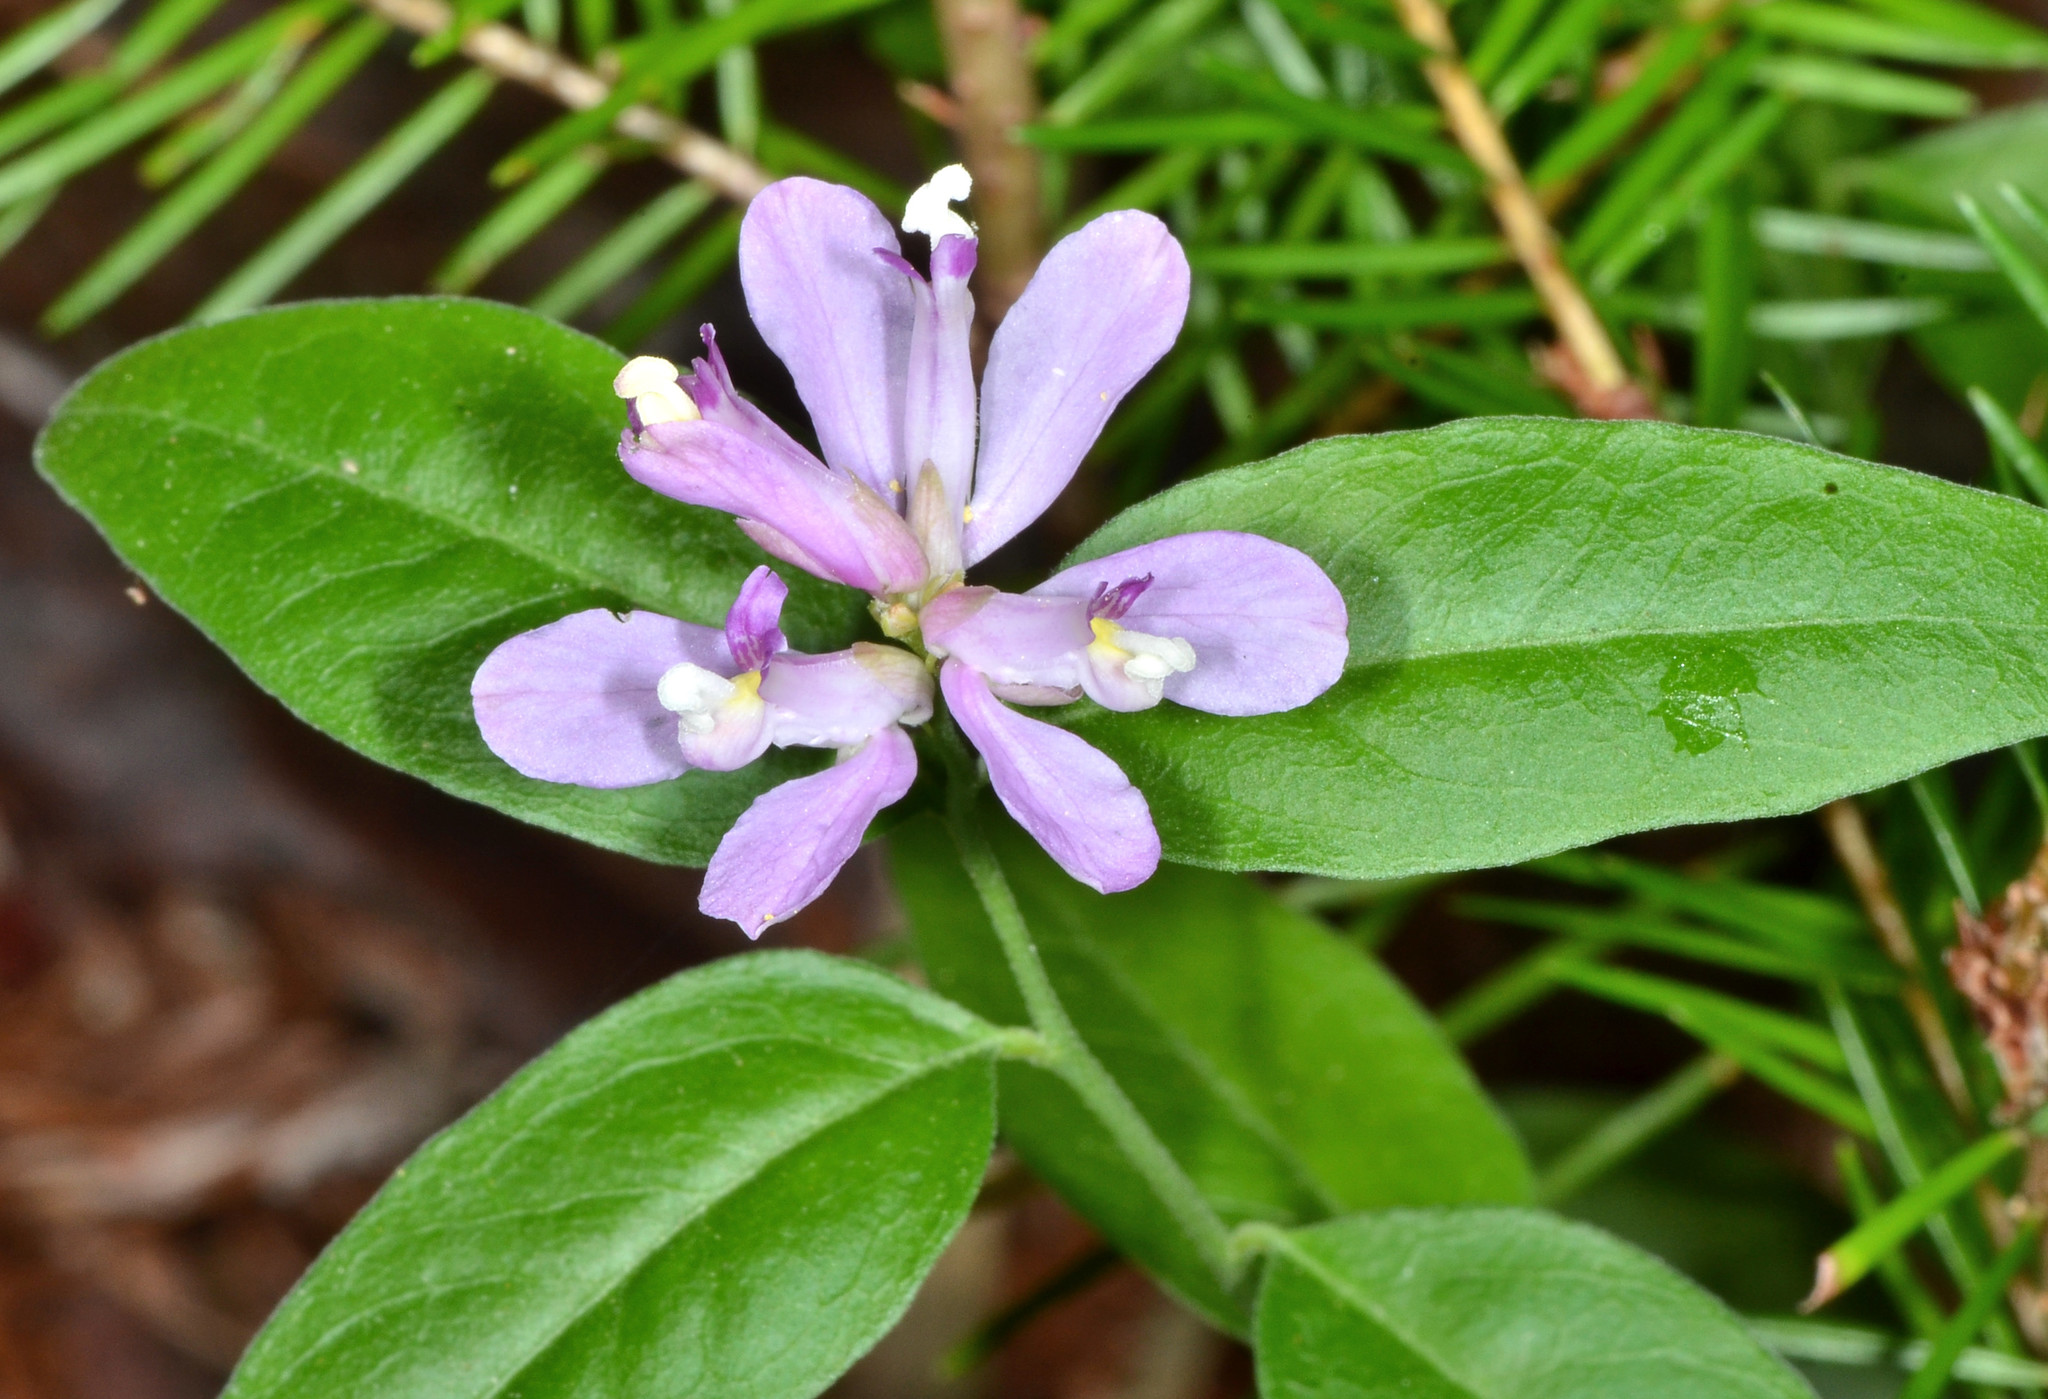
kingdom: Plantae
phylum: Tracheophyta
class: Magnoliopsida
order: Fabales
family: Polygalaceae
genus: Rhinotropis
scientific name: Rhinotropis californica
